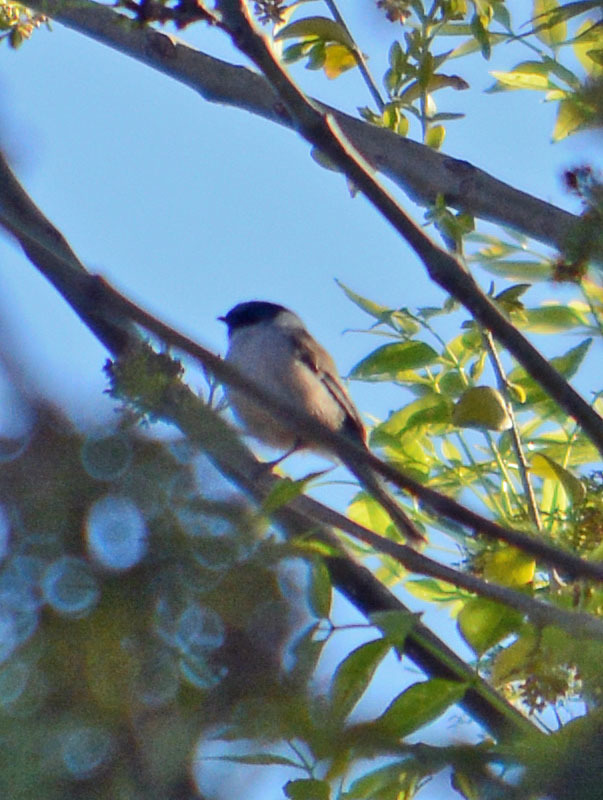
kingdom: Animalia
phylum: Chordata
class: Aves
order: Passeriformes
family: Aegithalidae
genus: Psaltriparus
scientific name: Psaltriparus minimus
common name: American bushtit
